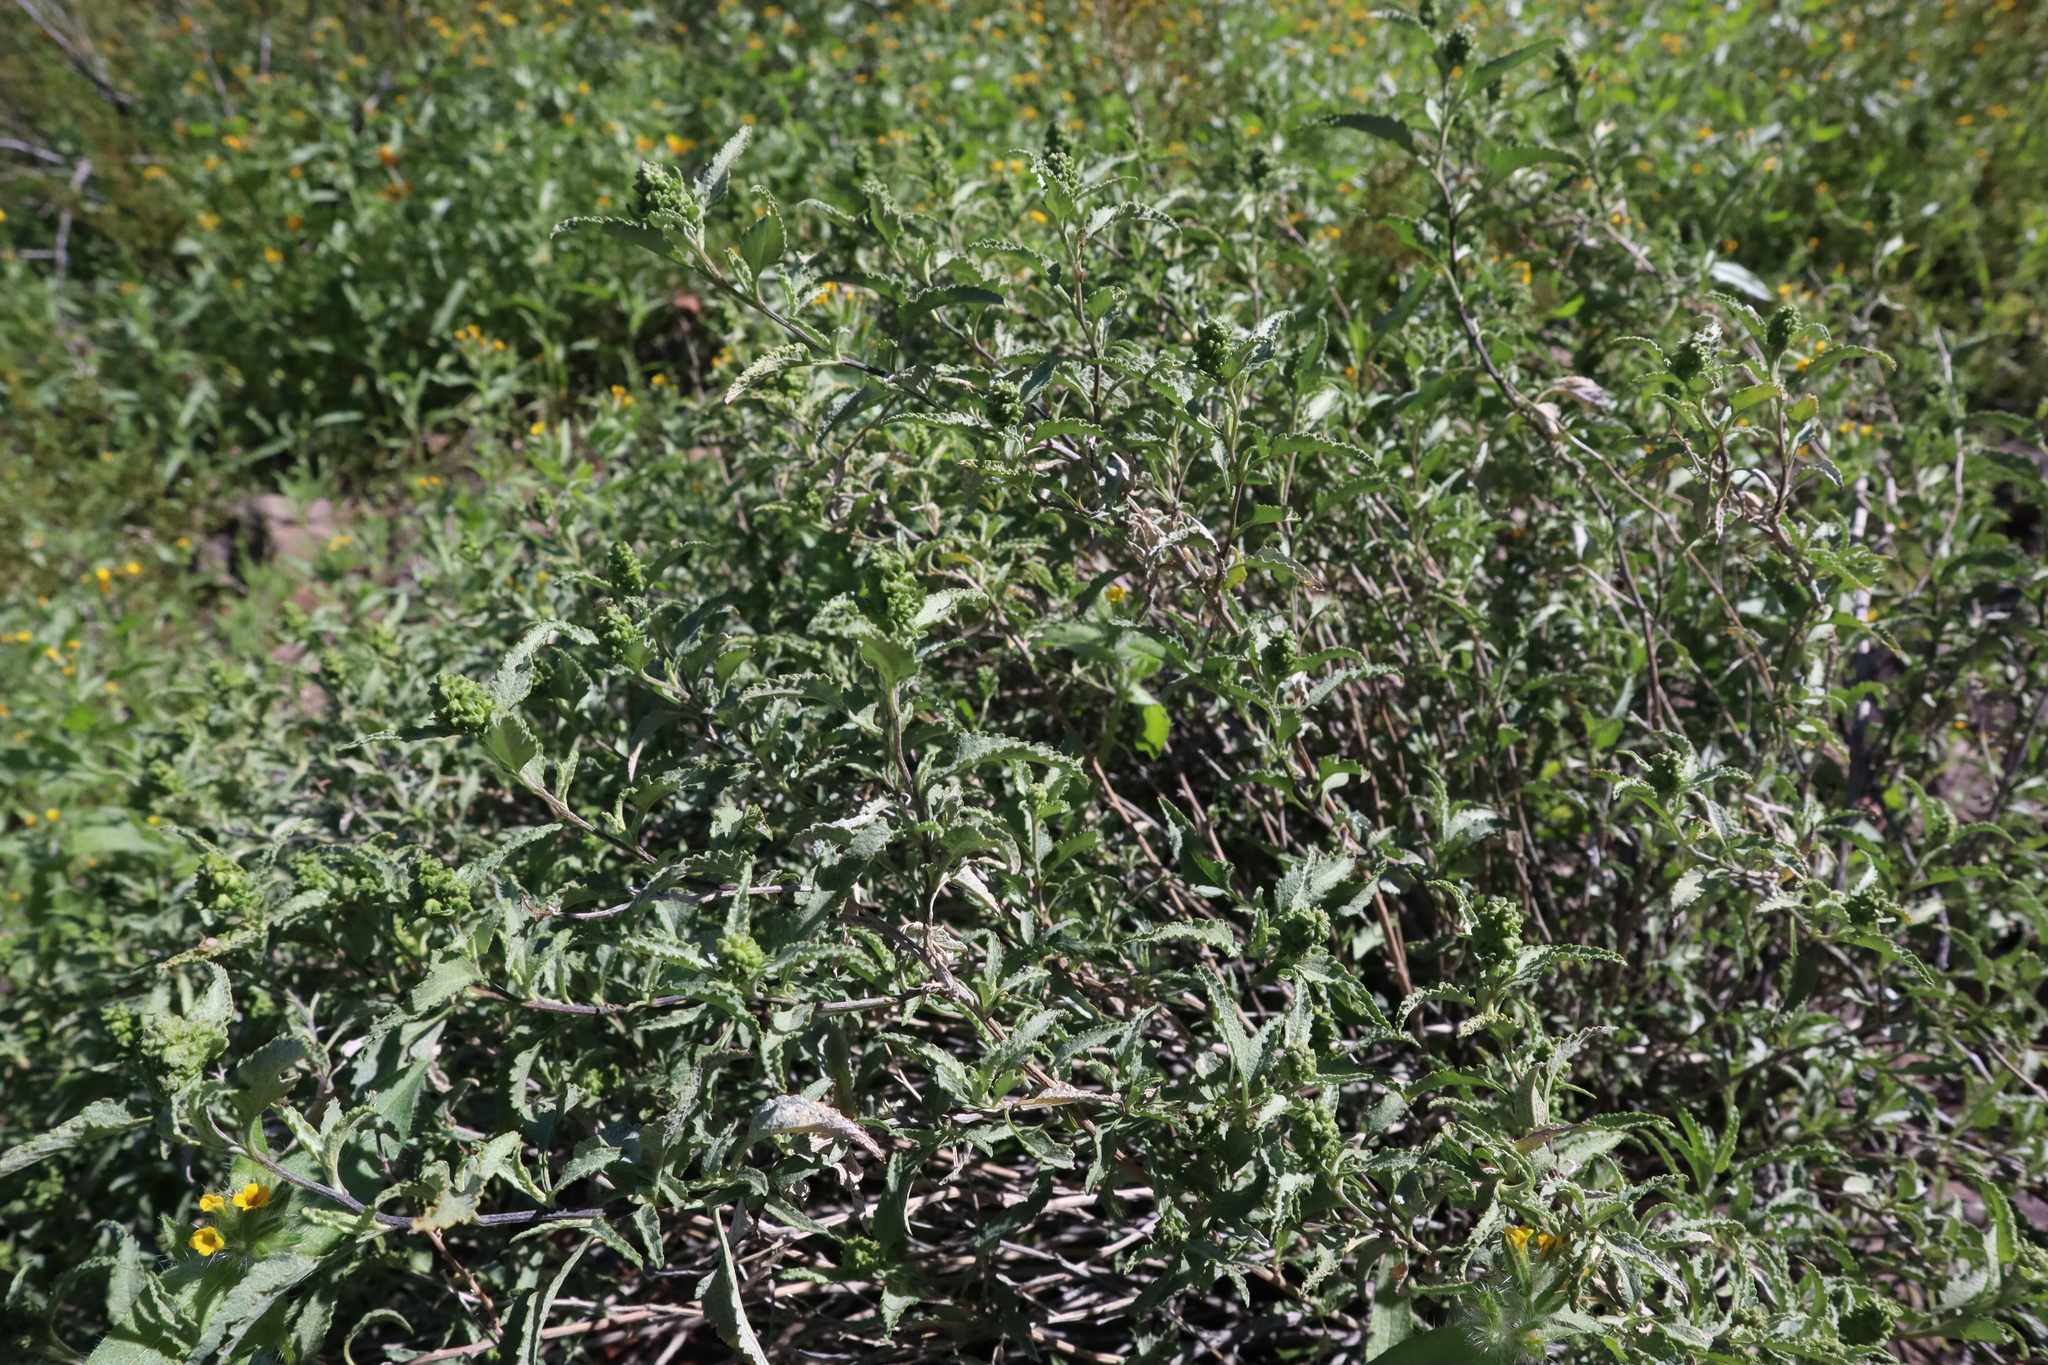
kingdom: Plantae
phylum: Tracheophyta
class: Magnoliopsida
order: Asterales
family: Asteraceae
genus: Ambrosia
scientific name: Ambrosia deltoidea
